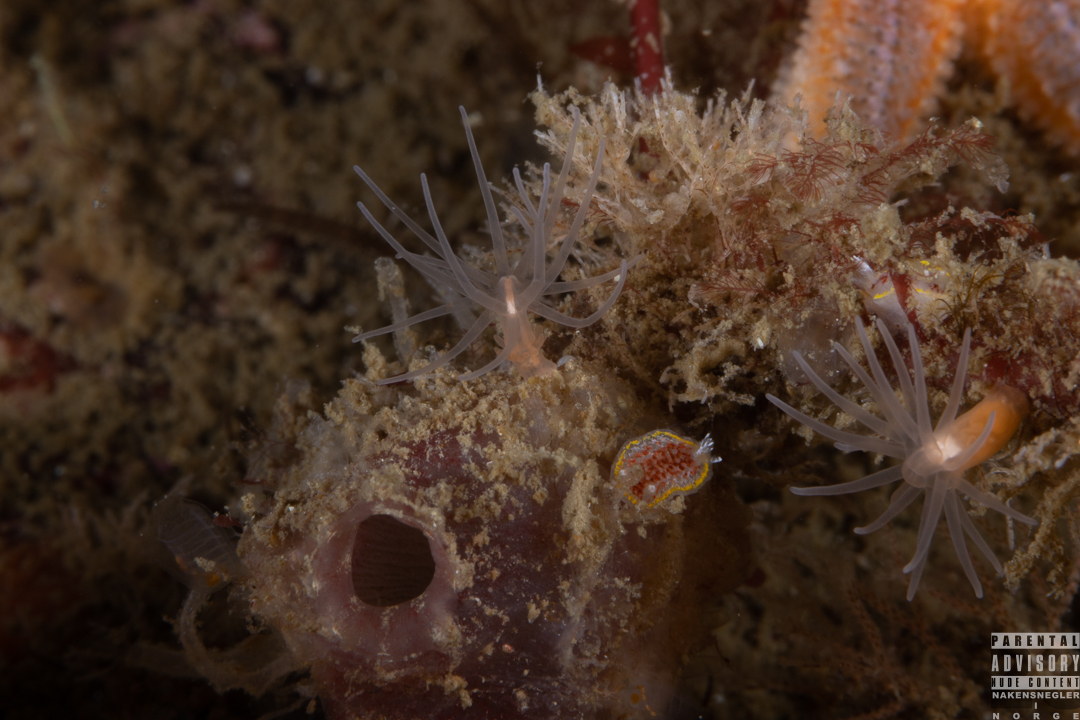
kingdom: Animalia
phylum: Mollusca
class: Gastropoda
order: Nudibranchia
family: Calycidorididae
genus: Diaphorodoris
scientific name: Diaphorodoris luteocincta
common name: Fried egg nudibranch
